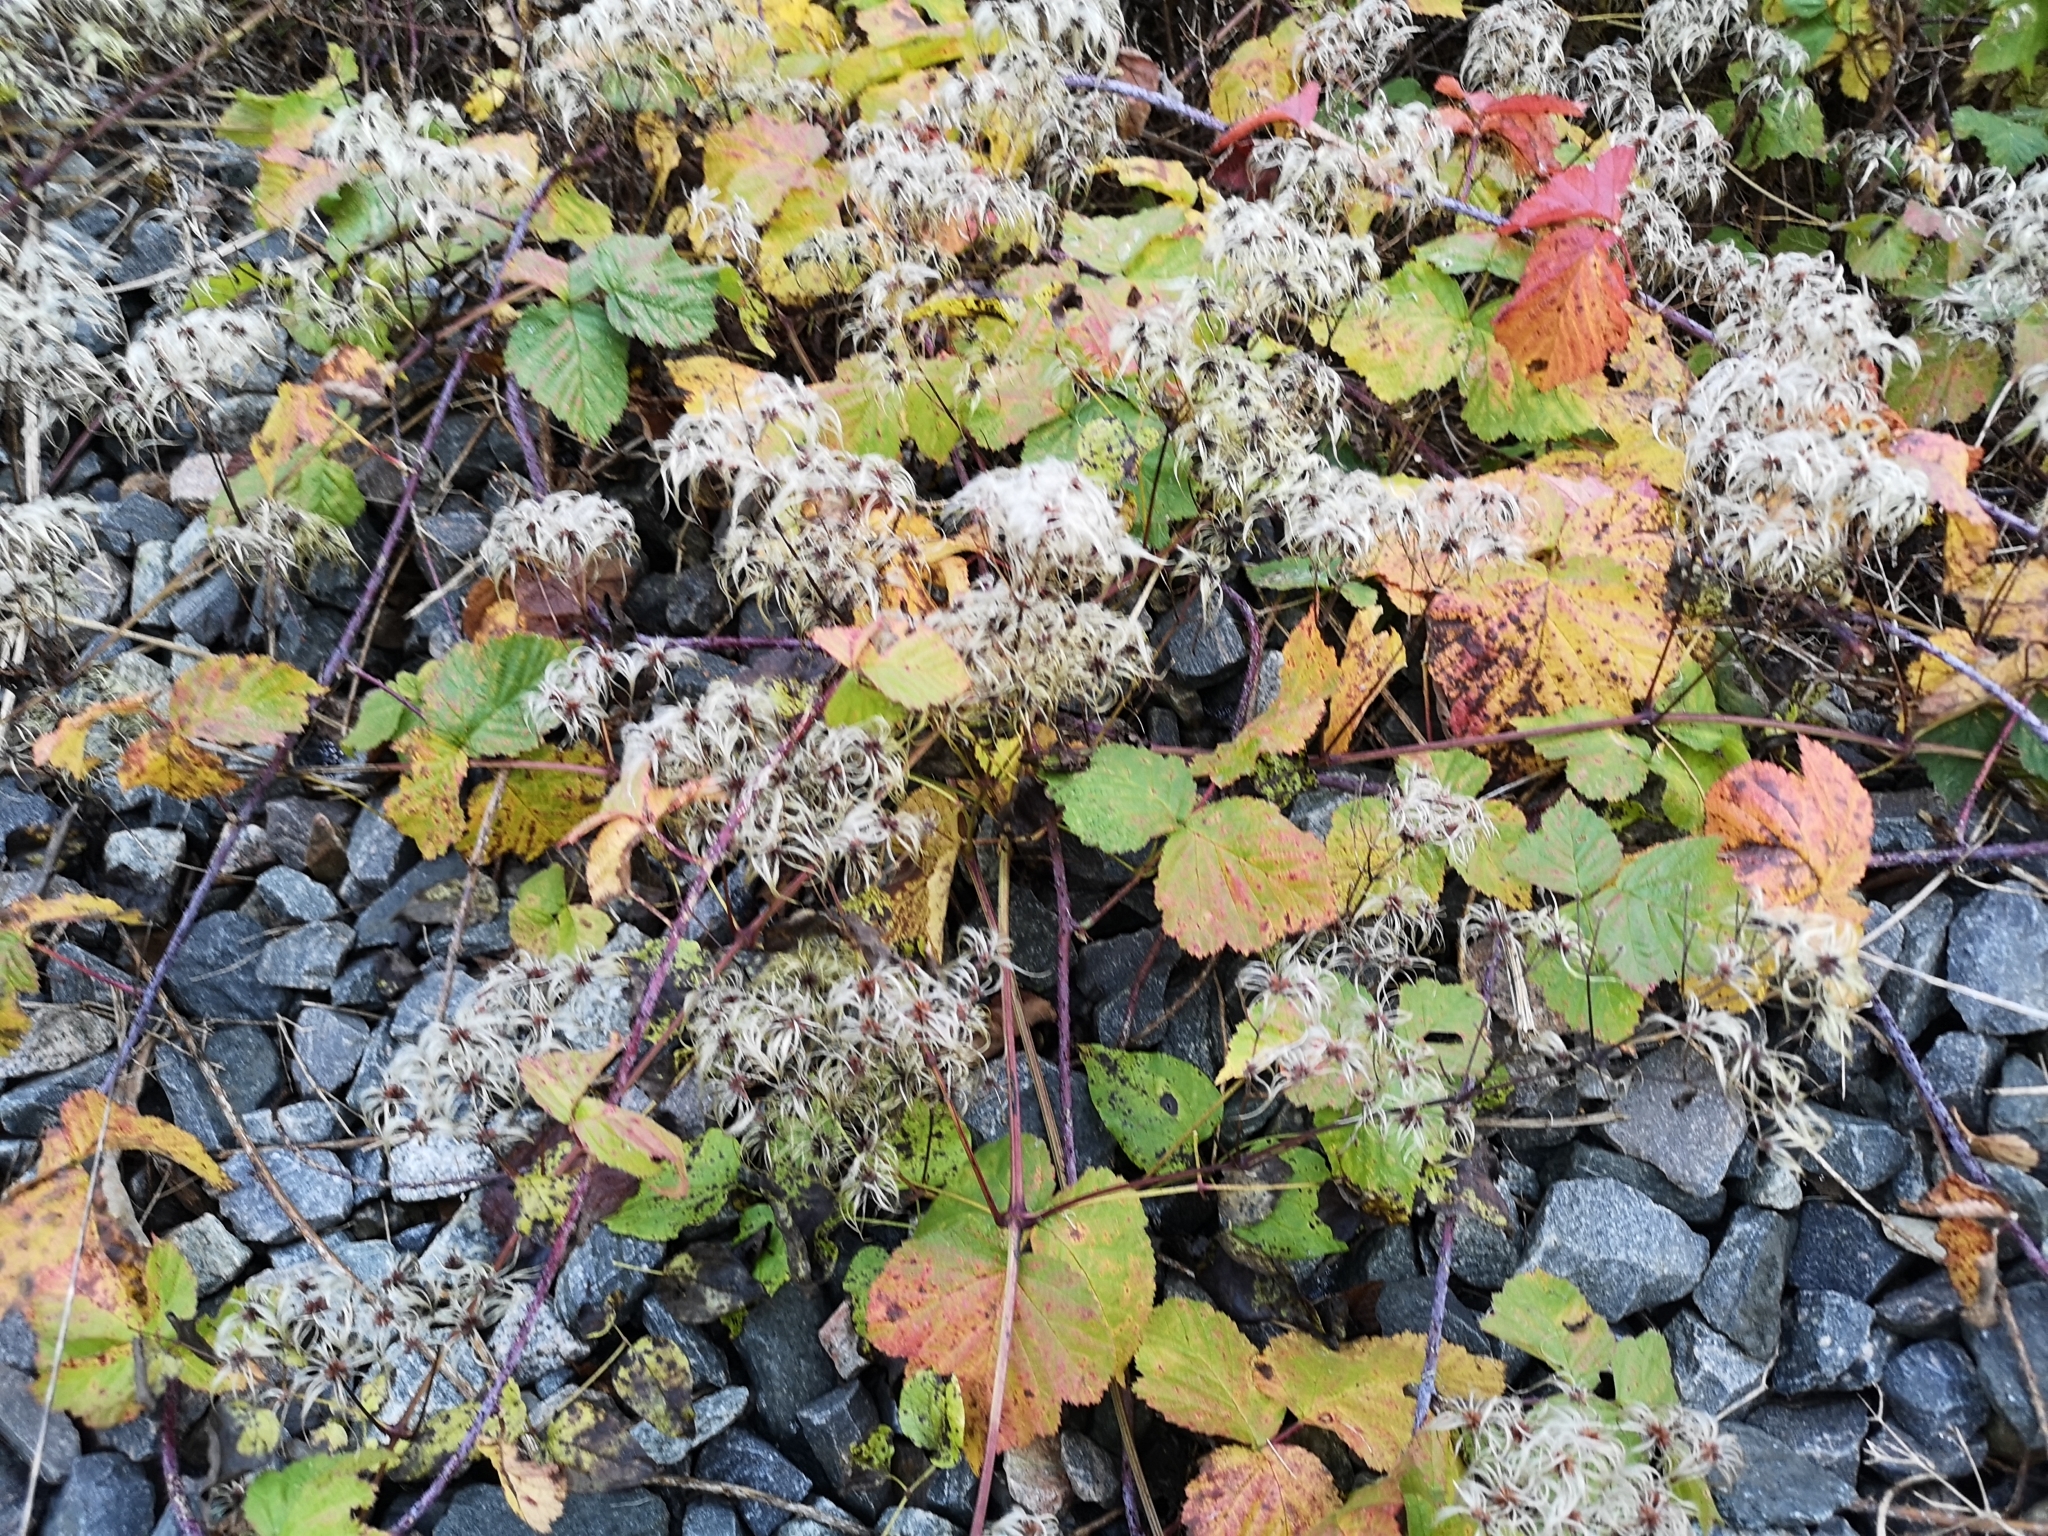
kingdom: Plantae
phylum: Tracheophyta
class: Magnoliopsida
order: Ranunculales
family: Ranunculaceae
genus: Clematis
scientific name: Clematis vitalba
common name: Evergreen clematis
